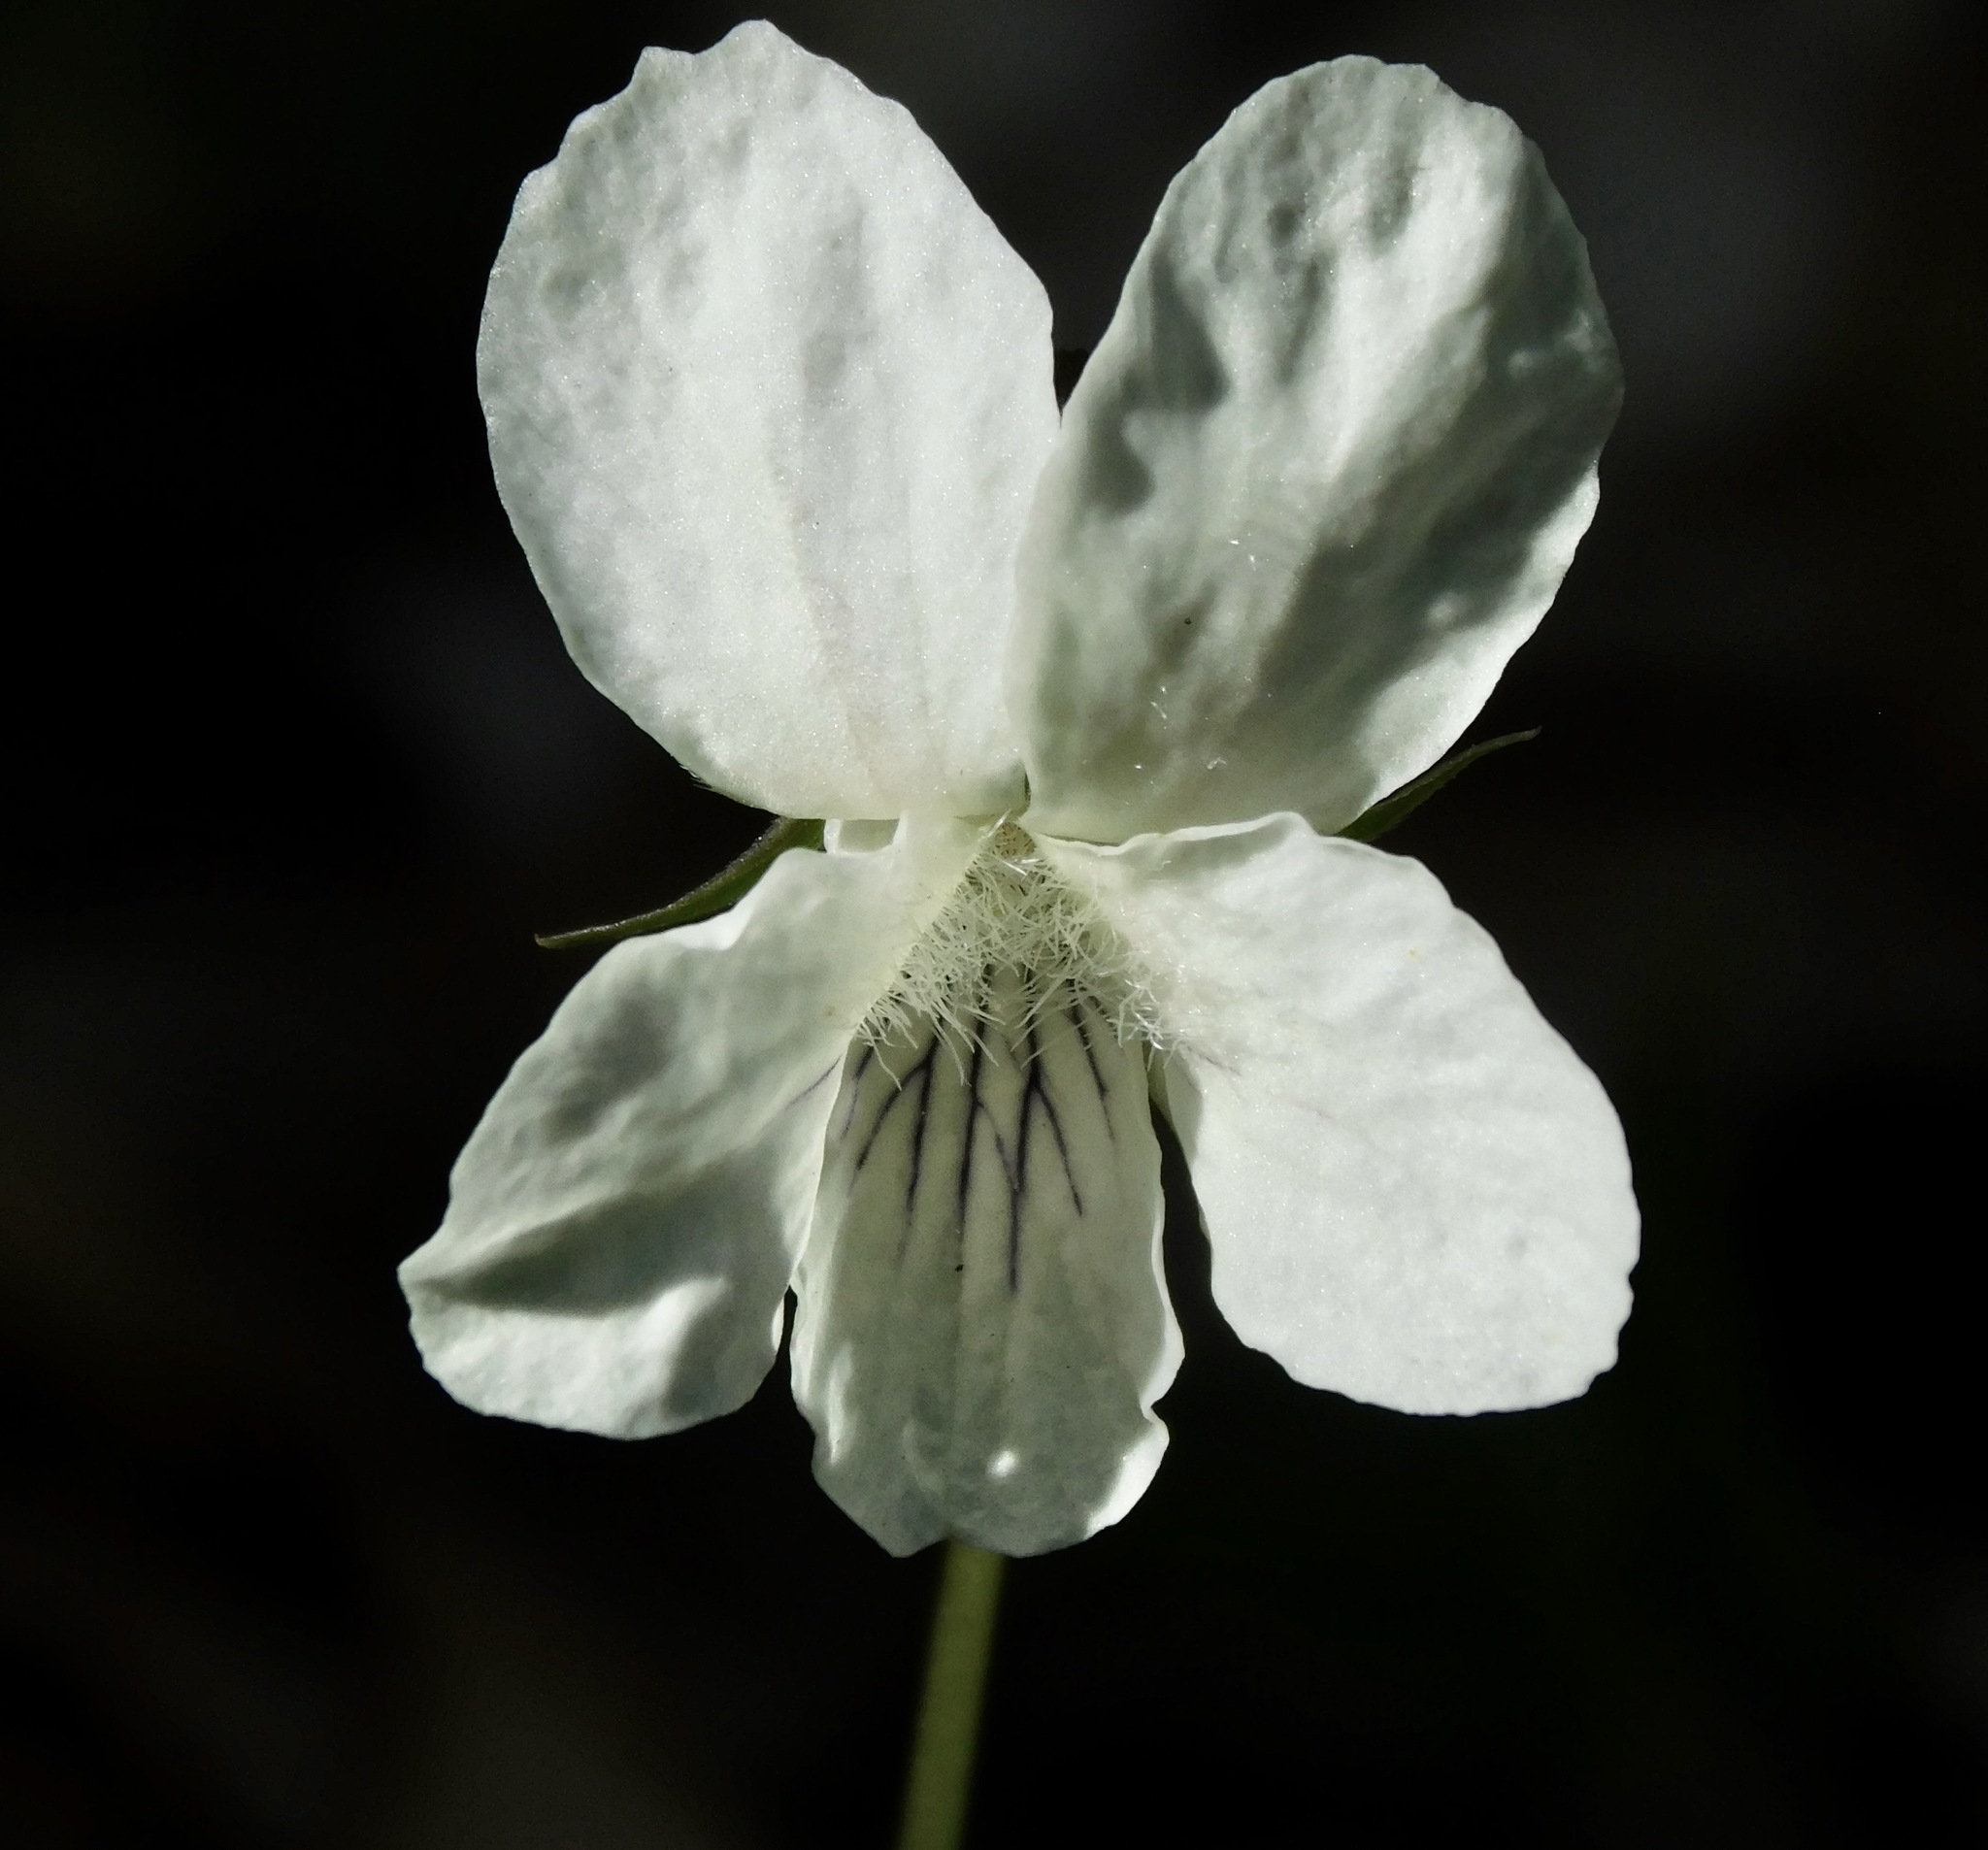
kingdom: Plantae
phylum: Tracheophyta
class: Magnoliopsida
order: Malpighiales
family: Violaceae
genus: Viola
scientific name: Viola striata
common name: Cream violet
